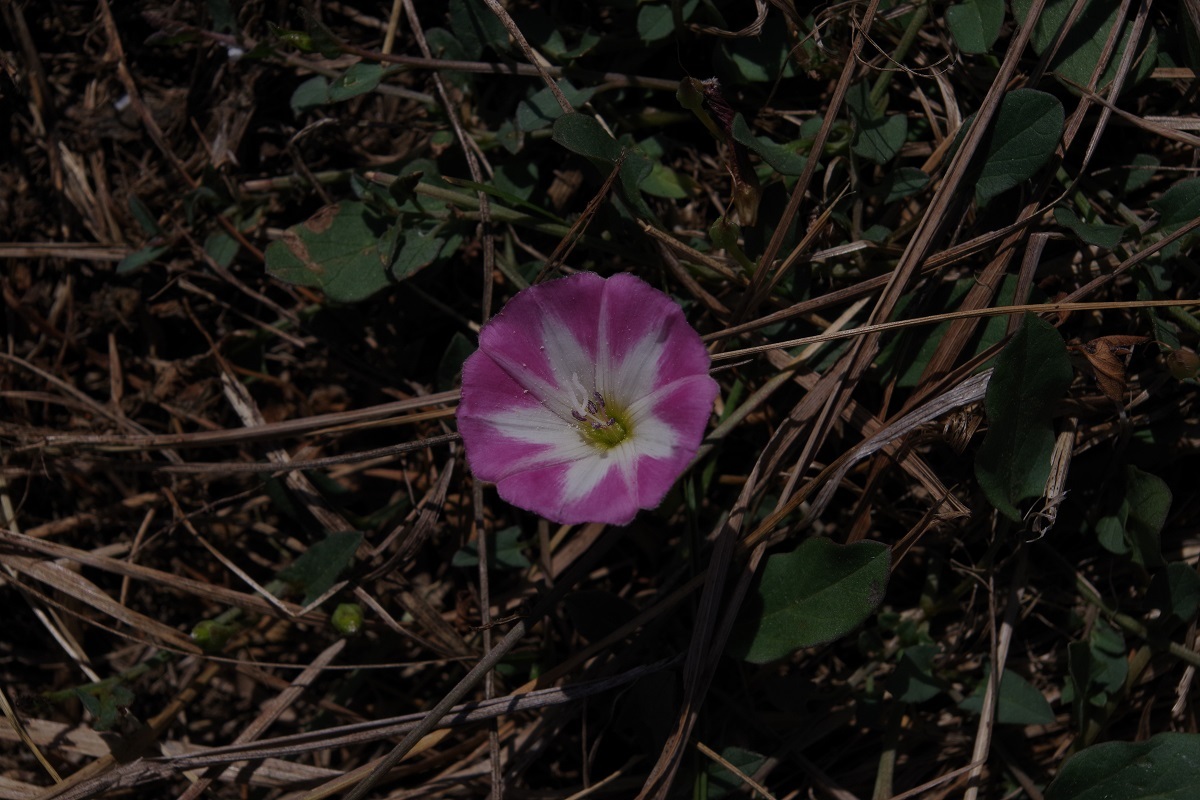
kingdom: Plantae
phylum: Tracheophyta
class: Magnoliopsida
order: Solanales
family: Convolvulaceae
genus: Convolvulus
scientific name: Convolvulus arvensis
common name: Field bindweed
